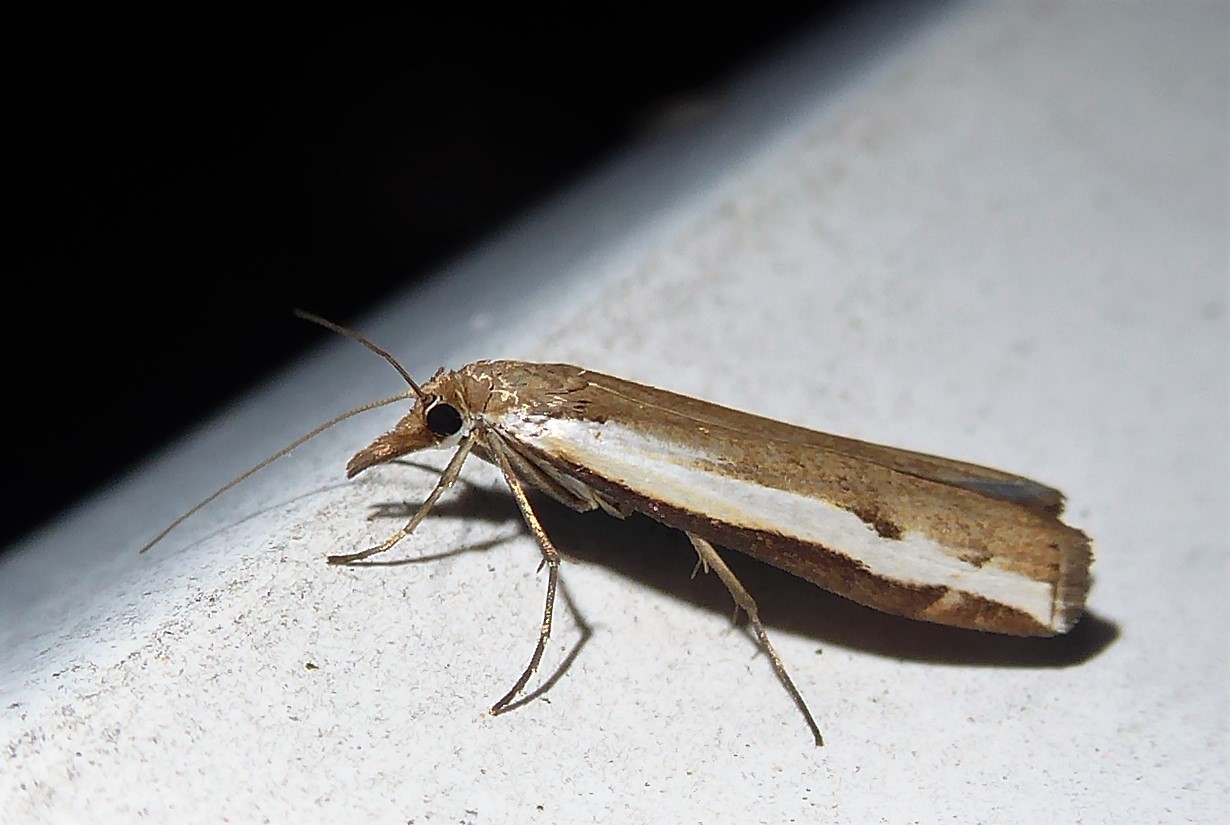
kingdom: Animalia
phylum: Arthropoda
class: Insecta
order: Lepidoptera
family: Crambidae
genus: Orocrambus
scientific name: Orocrambus flexuosellus
